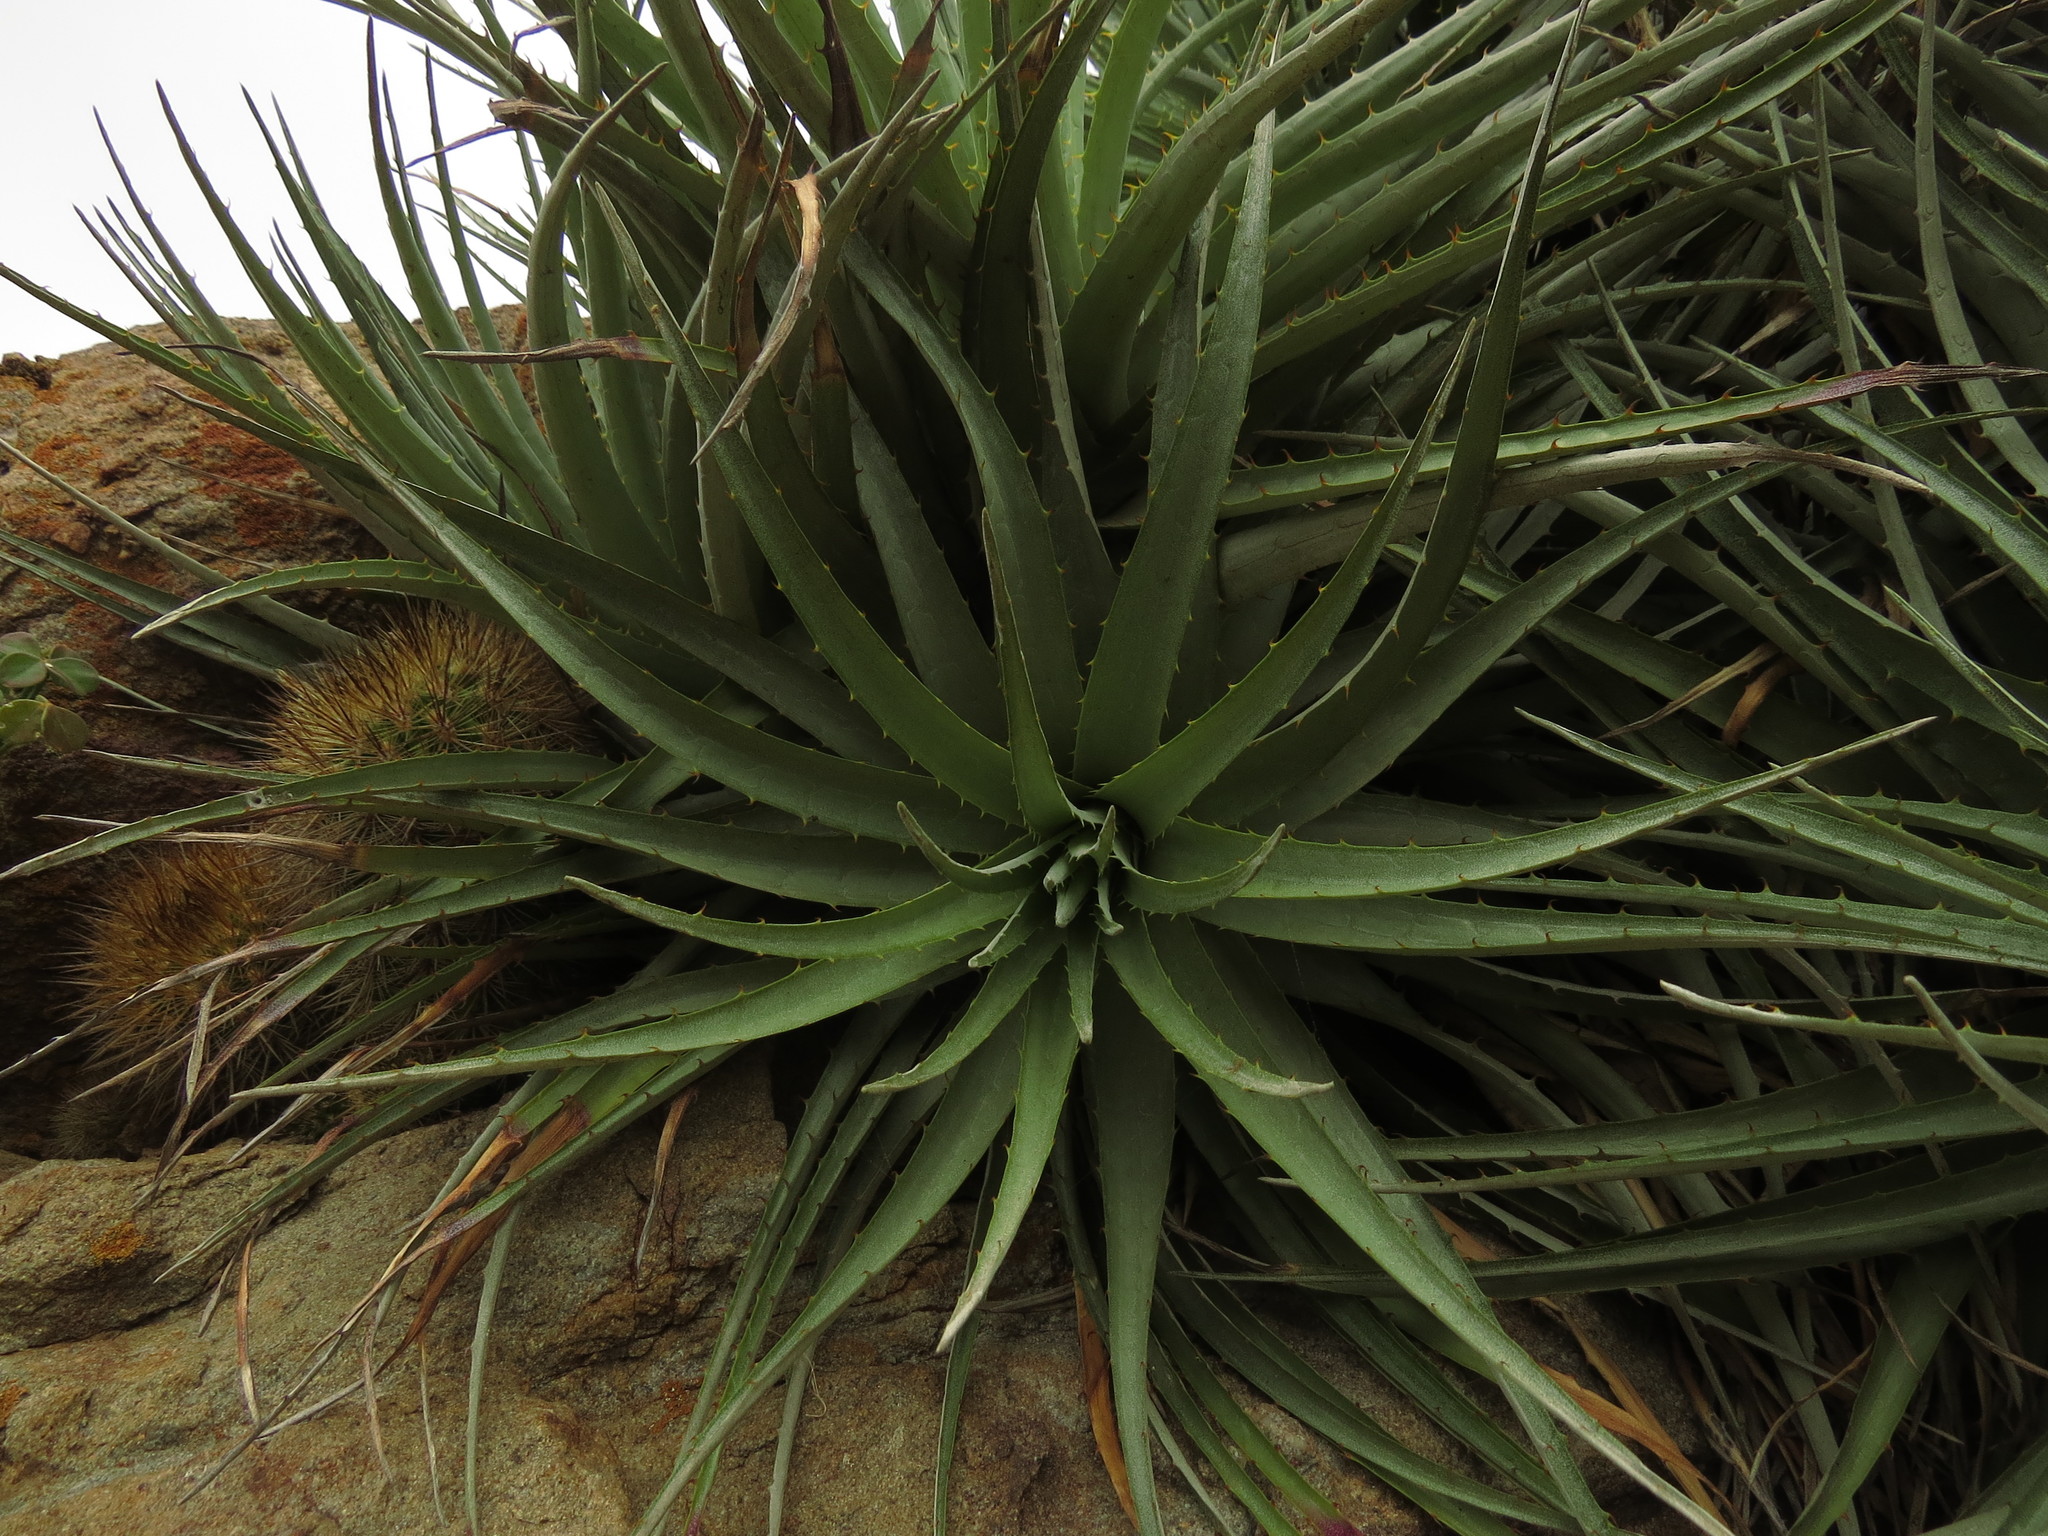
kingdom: Plantae
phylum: Tracheophyta
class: Liliopsida
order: Poales
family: Bromeliaceae
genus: Puya
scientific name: Puya venusta
